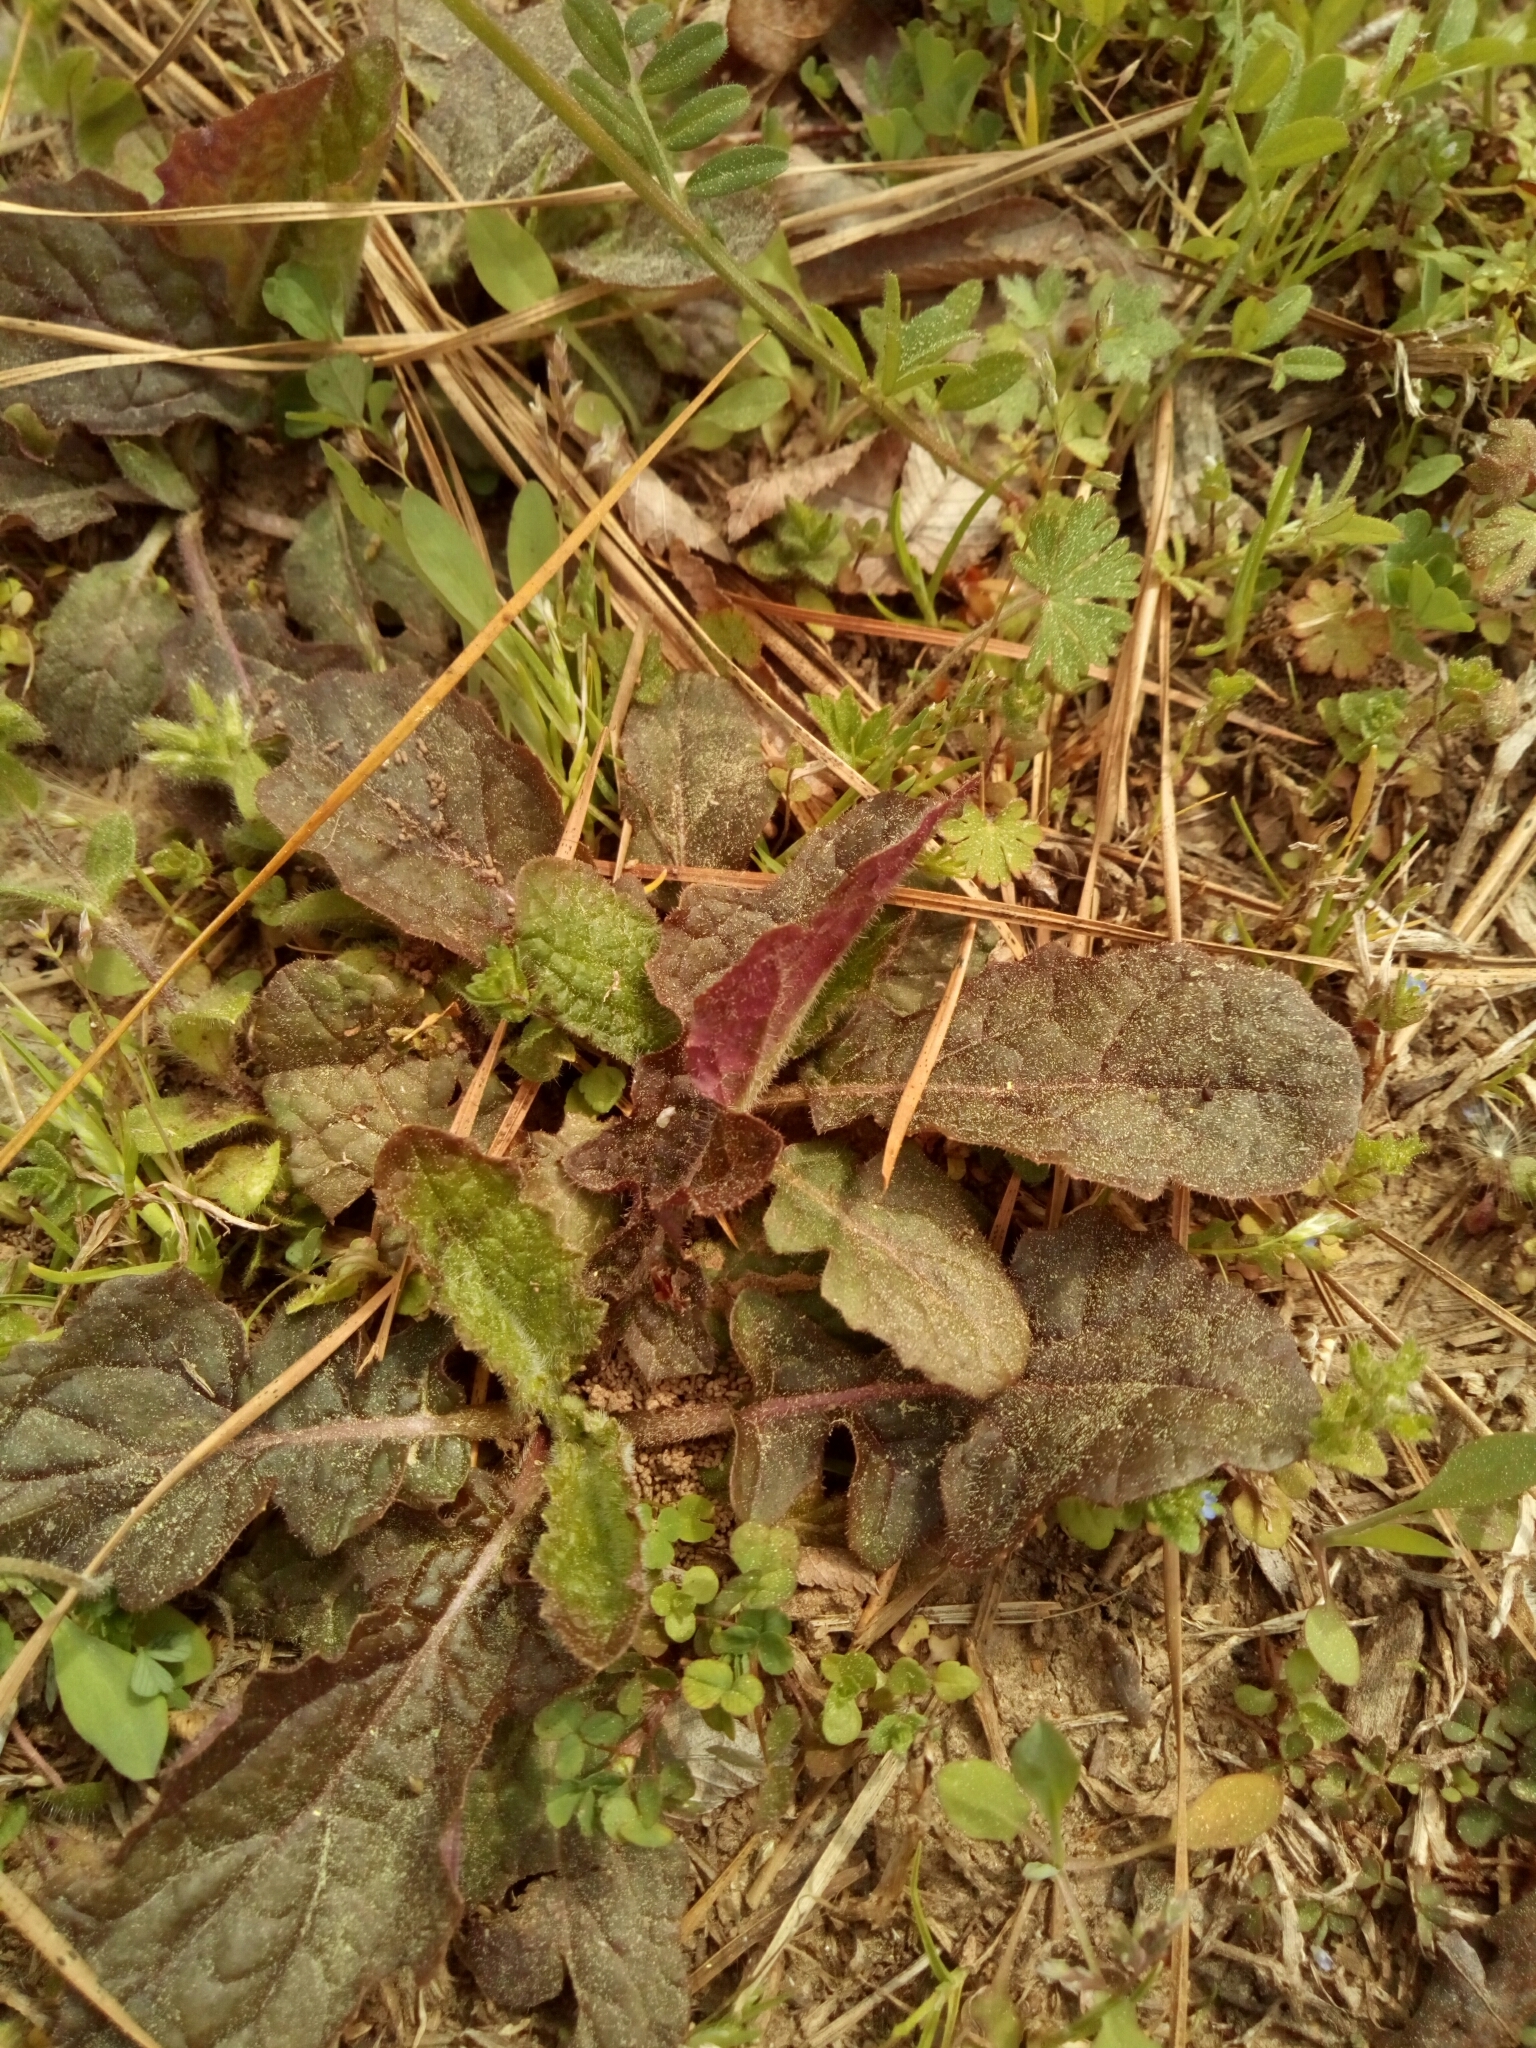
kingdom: Plantae
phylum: Tracheophyta
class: Magnoliopsida
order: Lamiales
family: Lamiaceae
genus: Salvia
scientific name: Salvia lyrata
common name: Cancerweed
